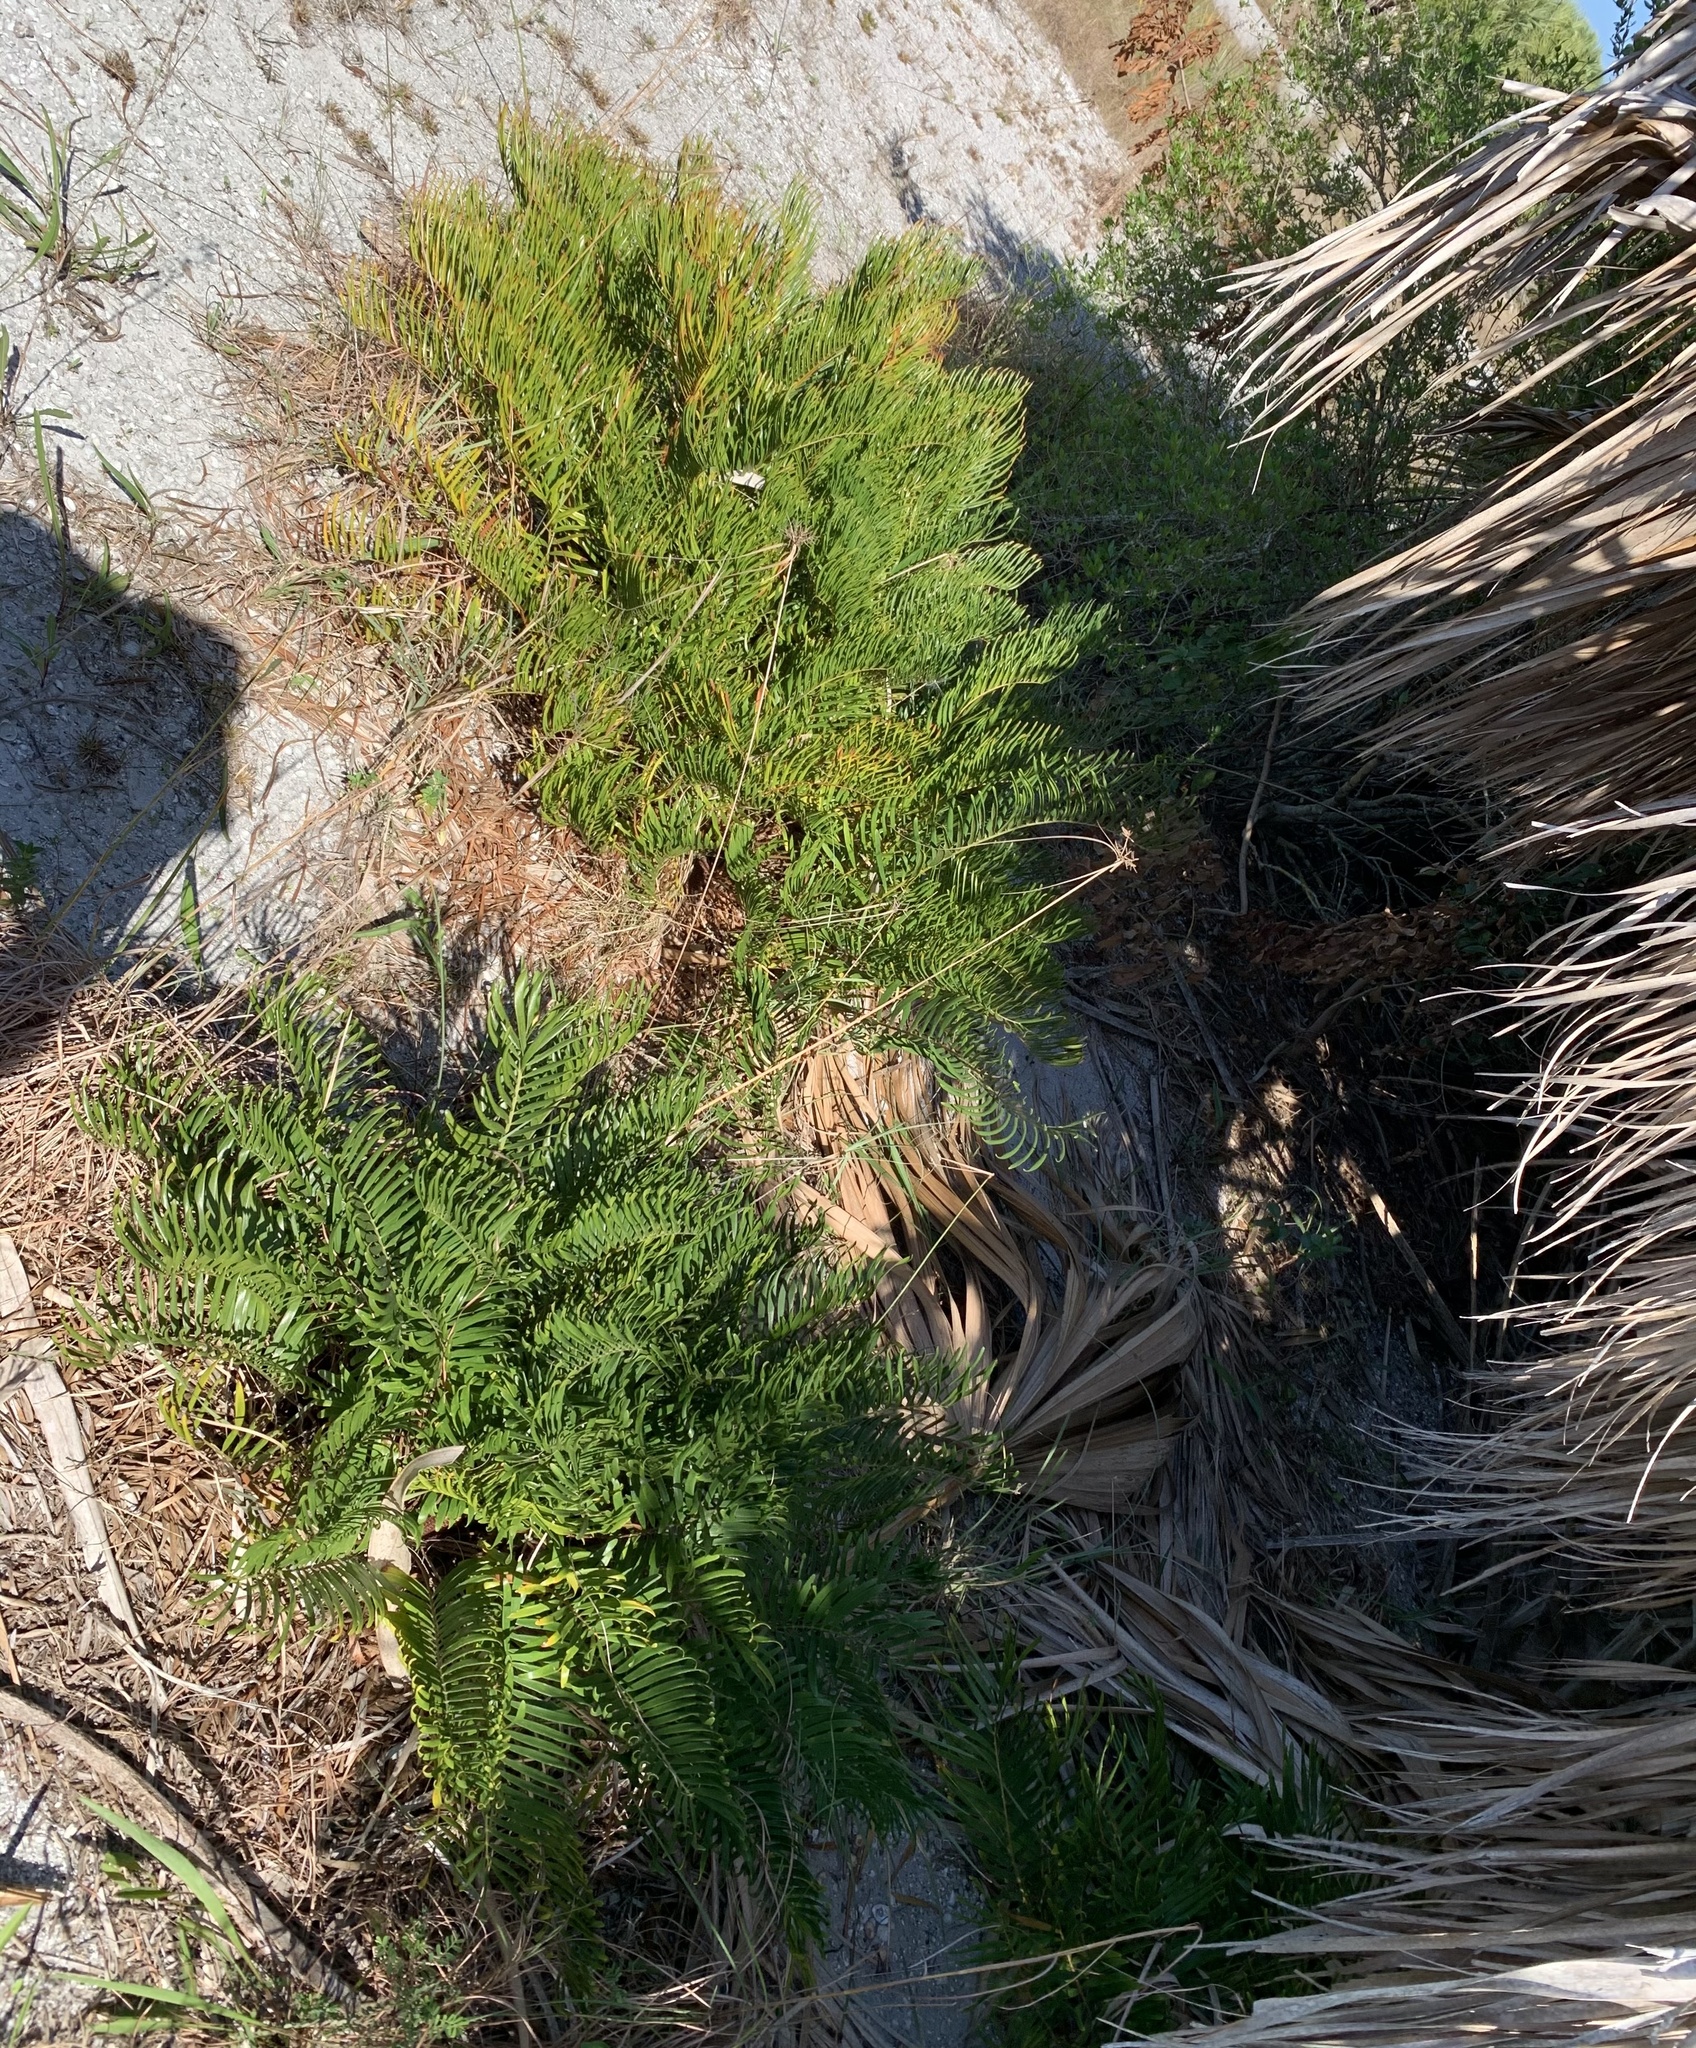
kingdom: Plantae
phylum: Tracheophyta
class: Cycadopsida
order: Cycadales
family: Zamiaceae
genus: Zamia
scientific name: Zamia integrifolia
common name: Florida arrowroot
